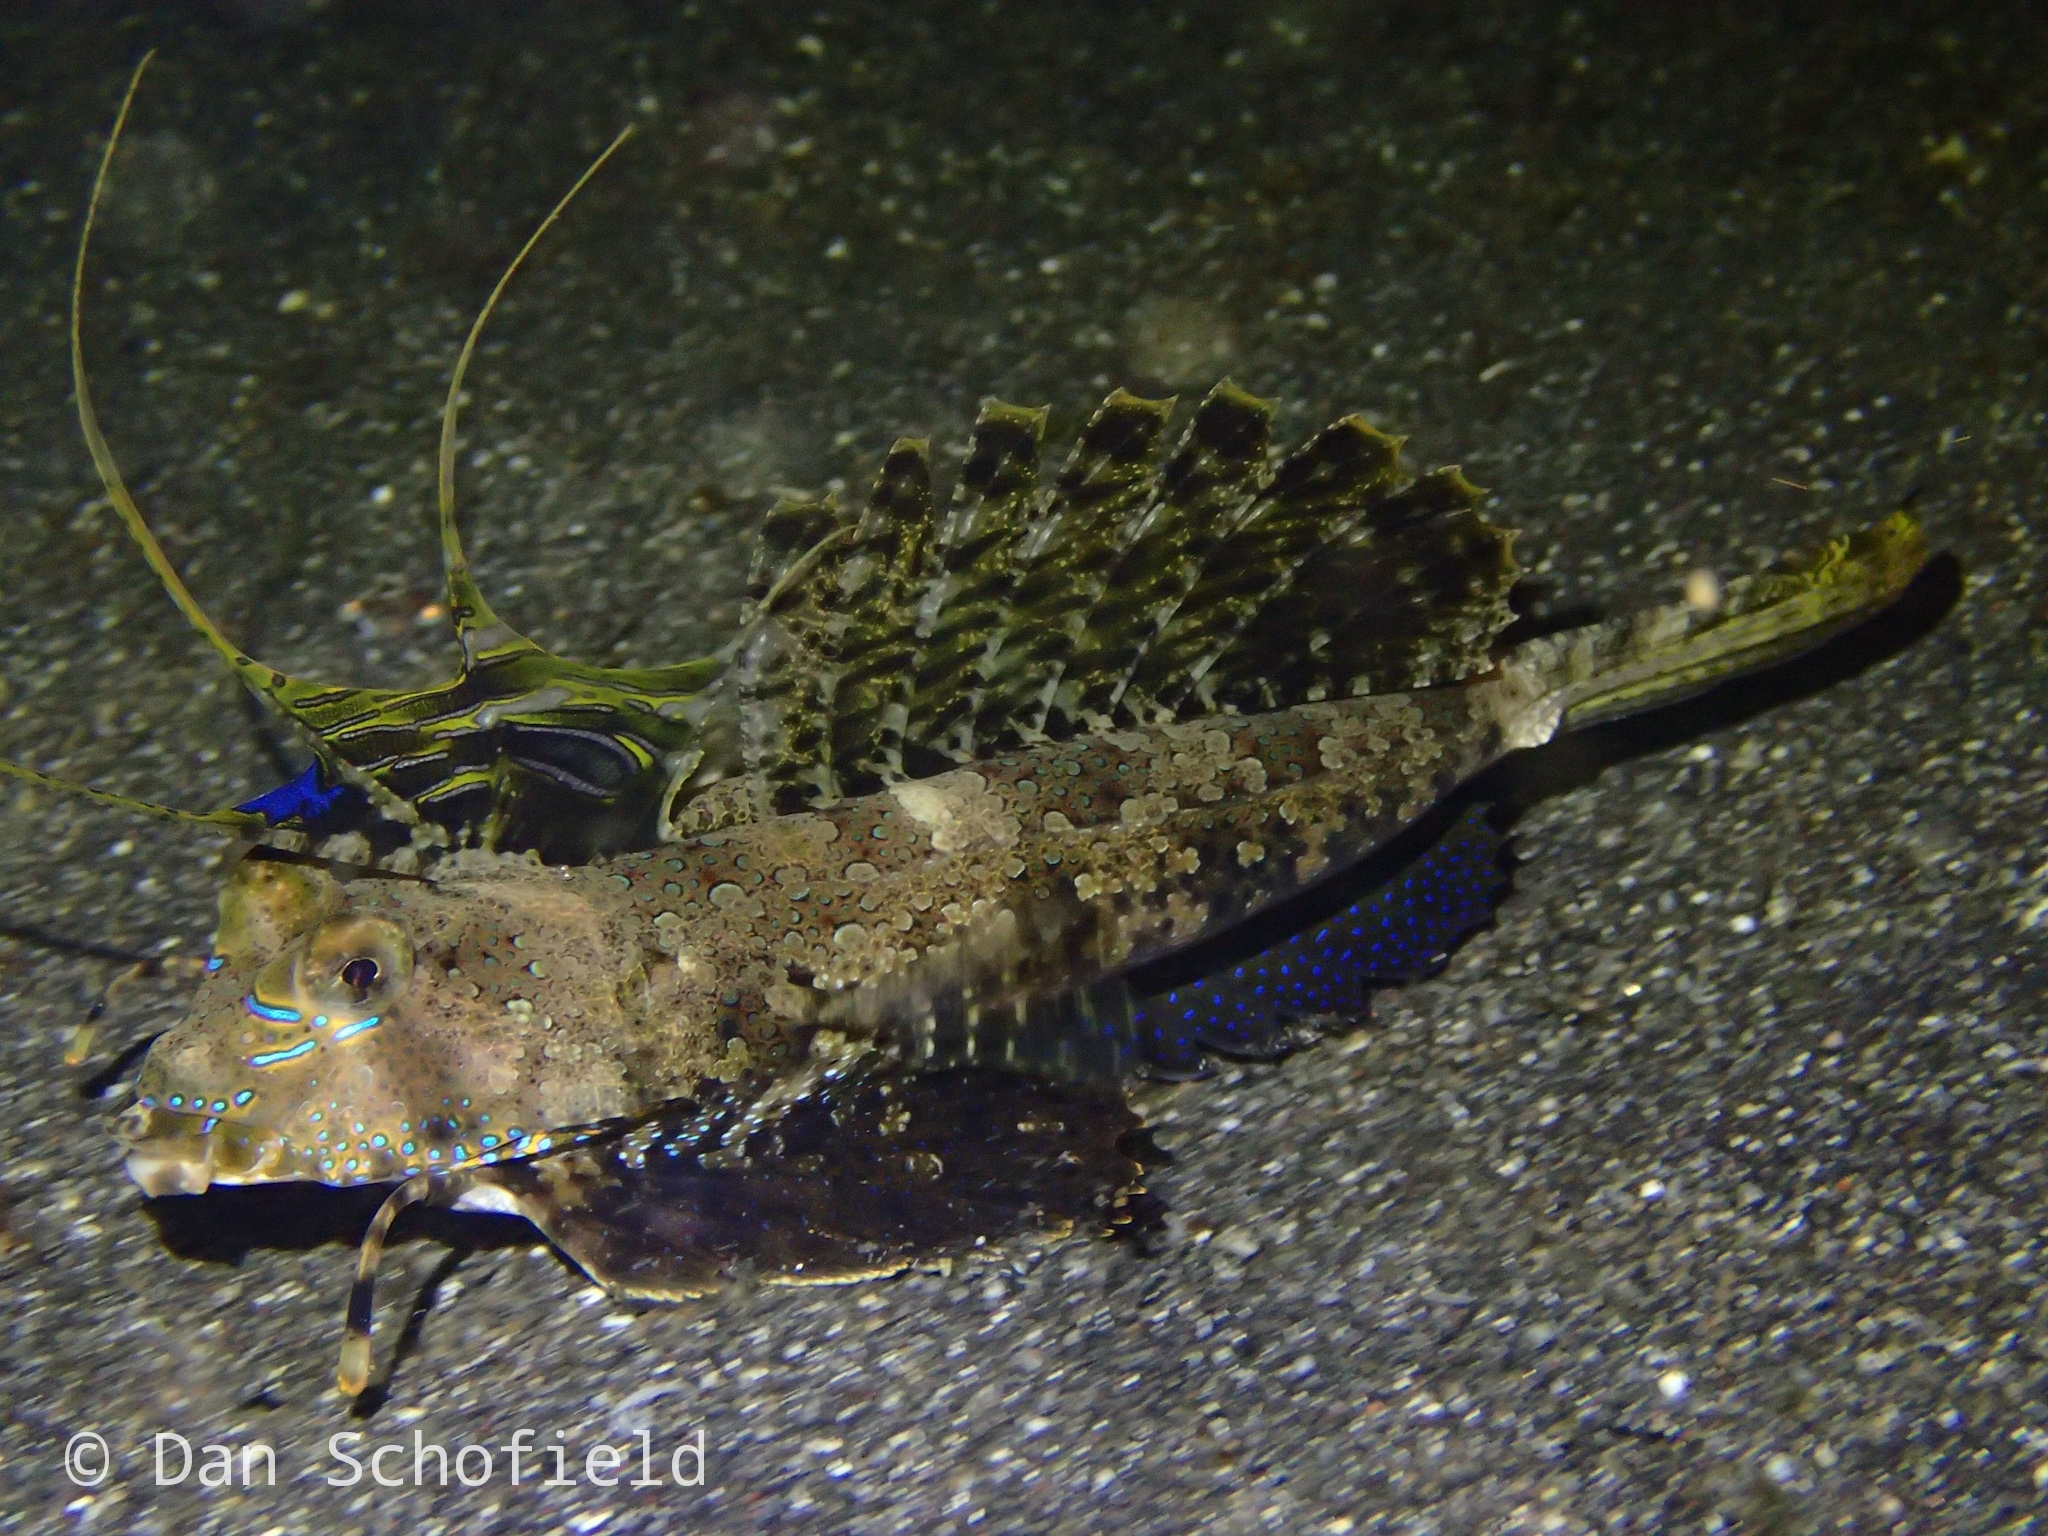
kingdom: Animalia
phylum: Chordata
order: Perciformes
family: Callionymidae
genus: Dactylopus
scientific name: Dactylopus dactylopus
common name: Fingered dragonet
